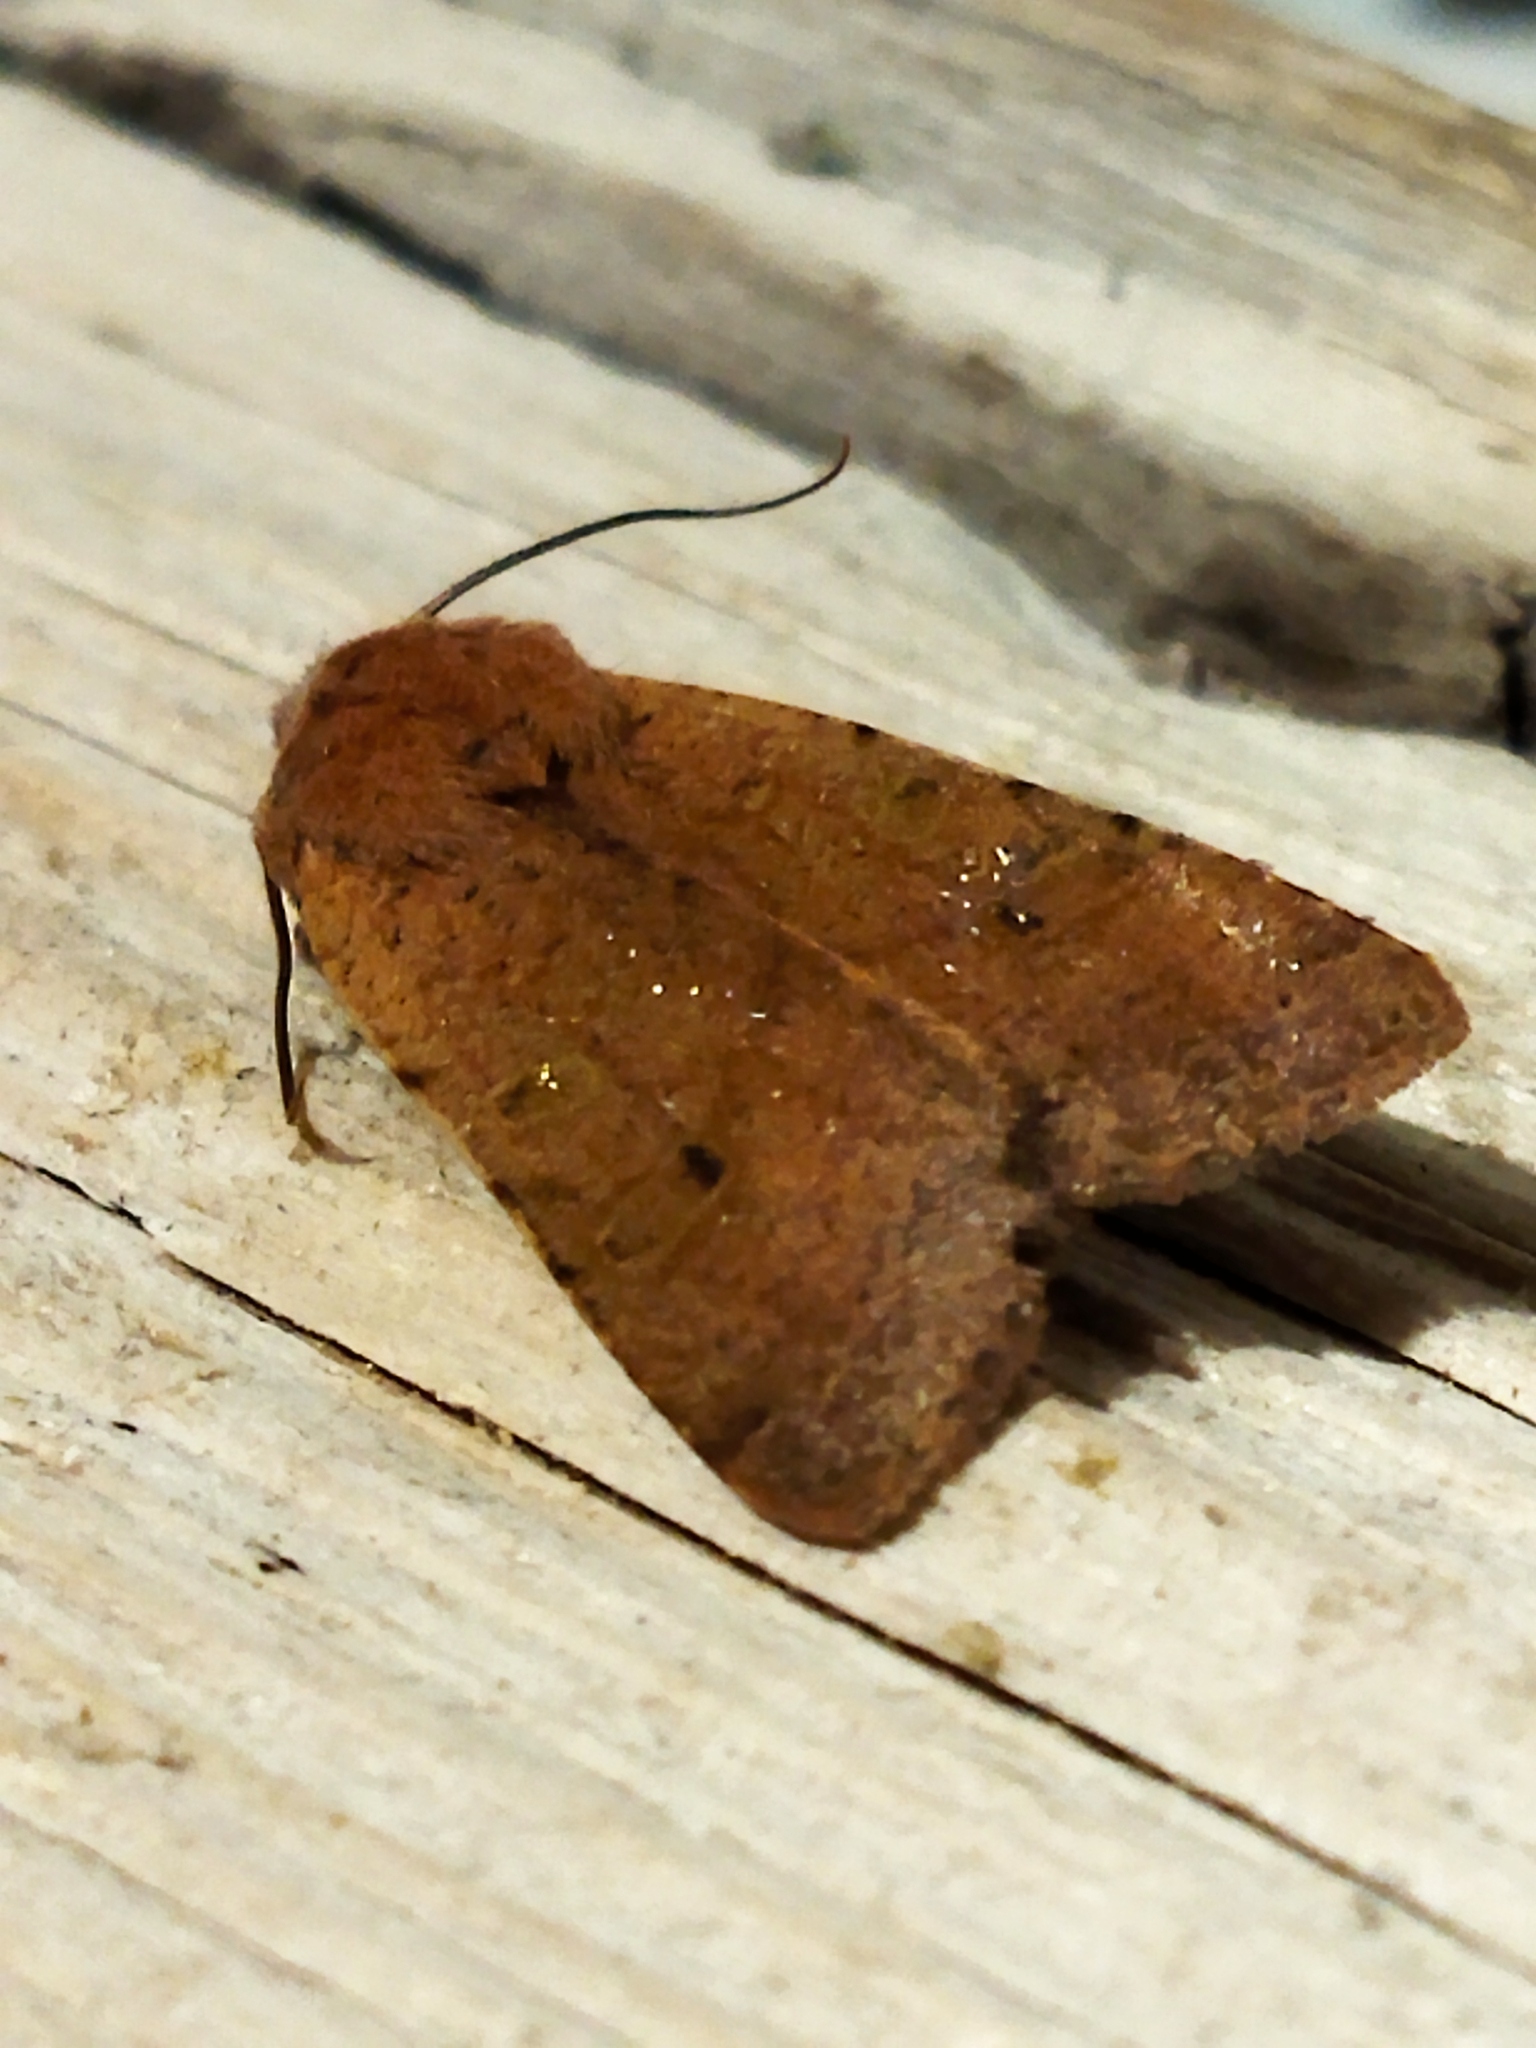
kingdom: Animalia
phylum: Arthropoda
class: Insecta
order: Lepidoptera
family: Noctuidae
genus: Agrochola
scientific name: Agrochola lychnidis
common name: Beaded chestnut
